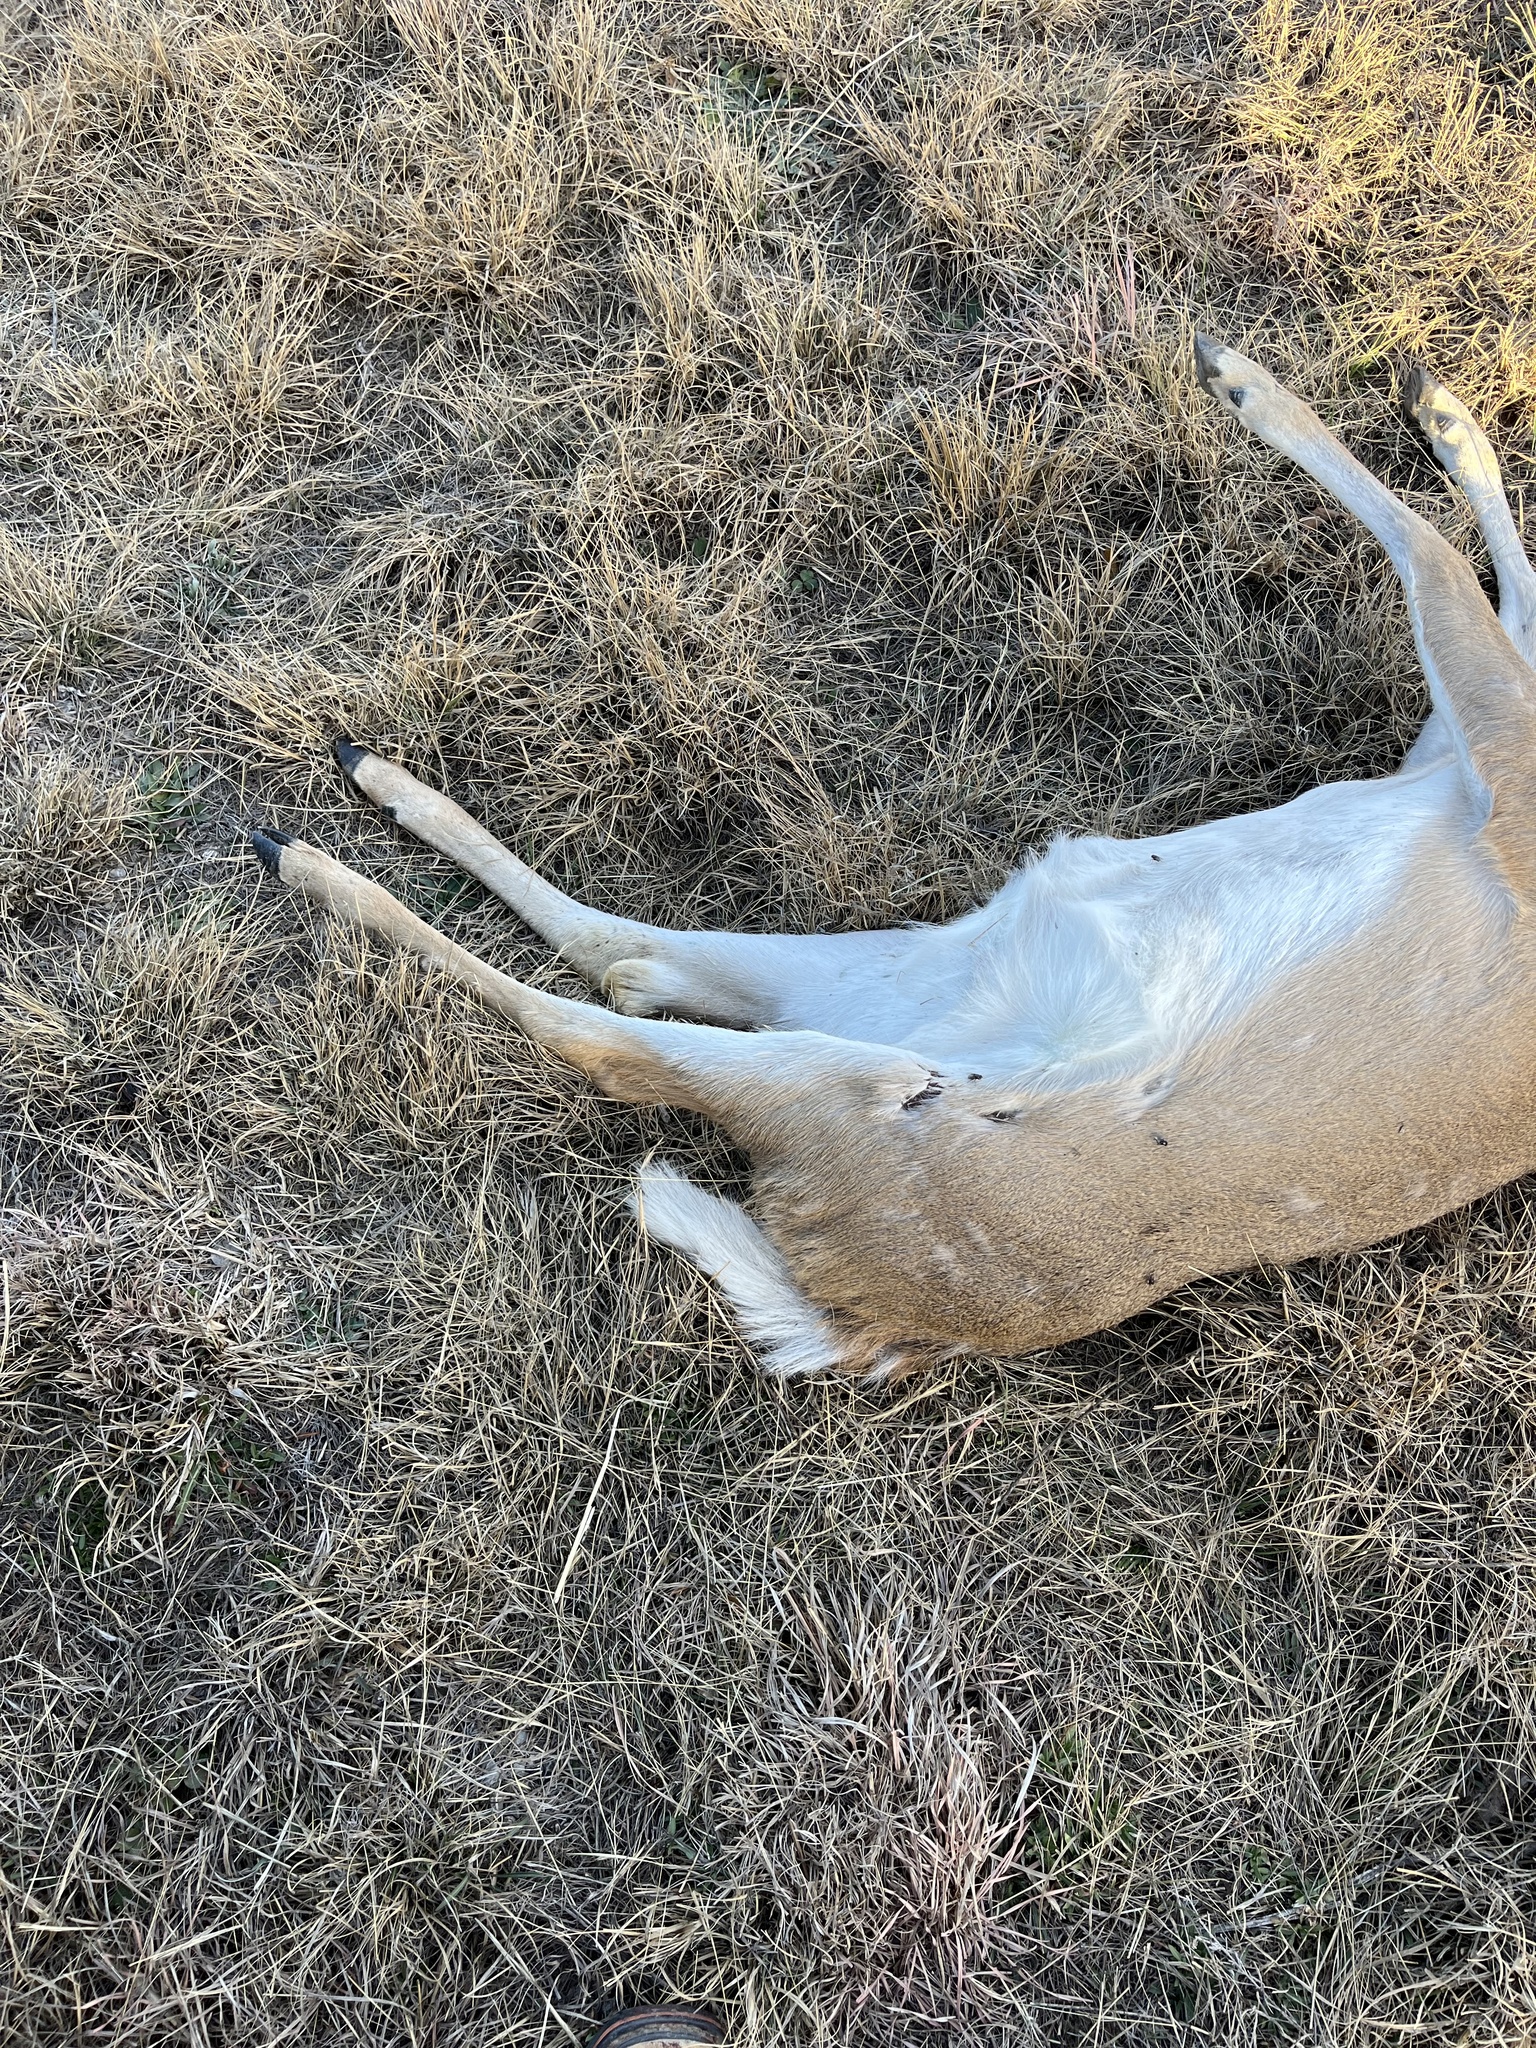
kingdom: Animalia
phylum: Chordata
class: Mammalia
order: Artiodactyla
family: Cervidae
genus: Odocoileus
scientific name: Odocoileus virginianus
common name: White-tailed deer
